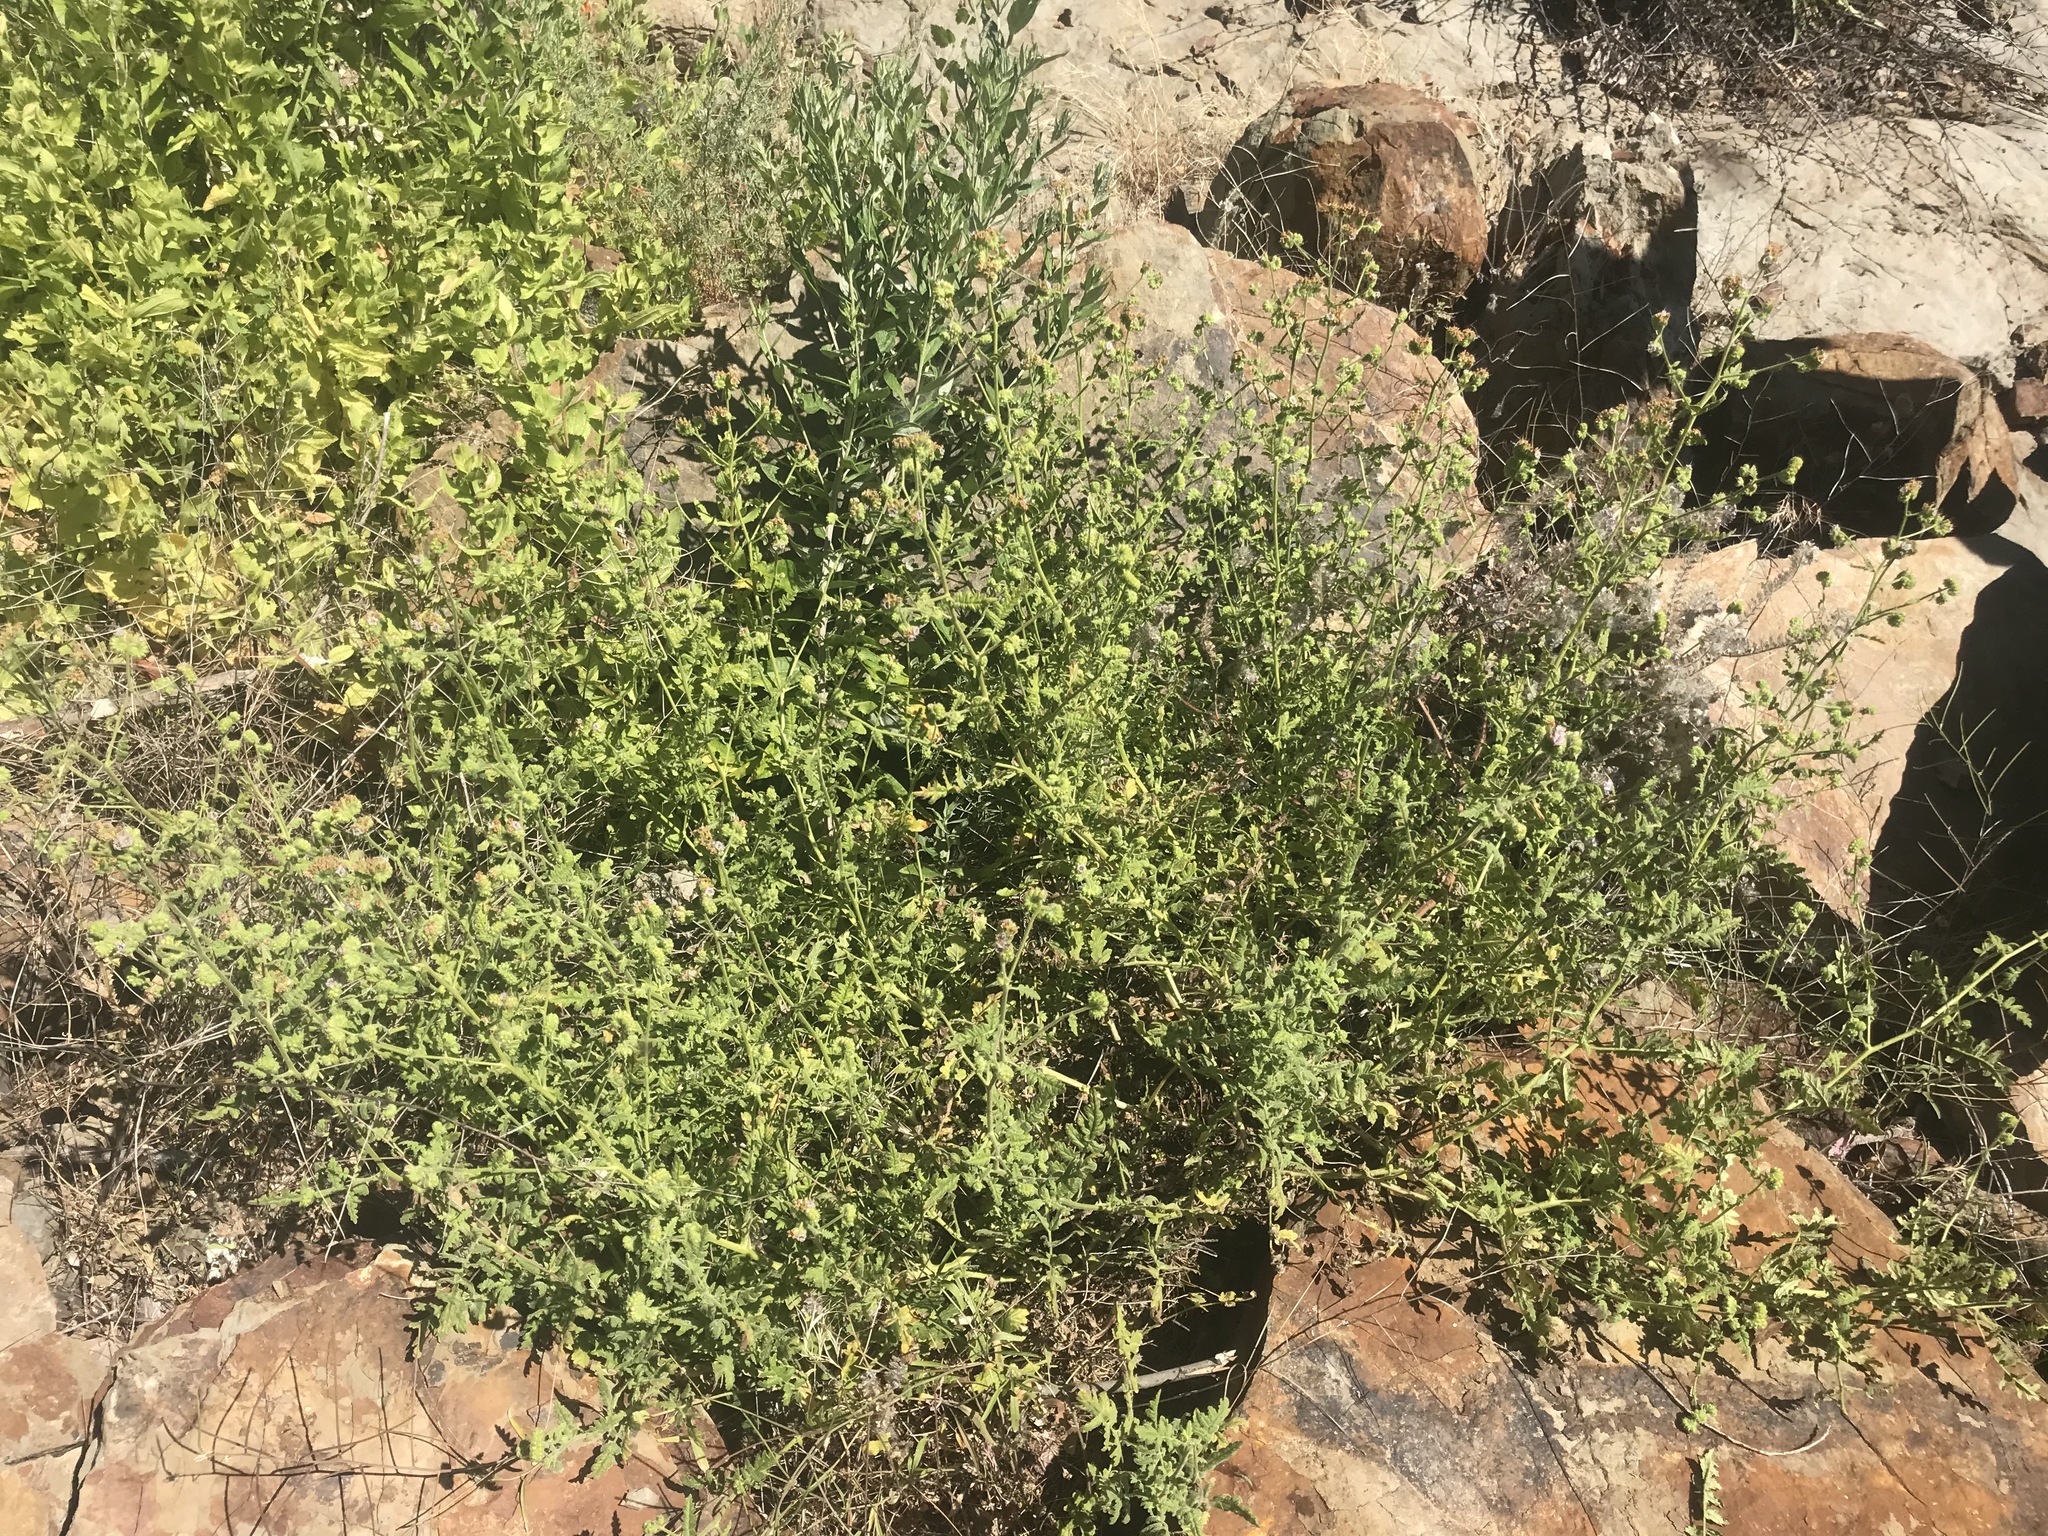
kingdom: Plantae
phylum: Tracheophyta
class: Magnoliopsida
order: Boraginales
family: Hydrophyllaceae
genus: Phacelia
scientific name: Phacelia ramosissima
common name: Branching phacelia
